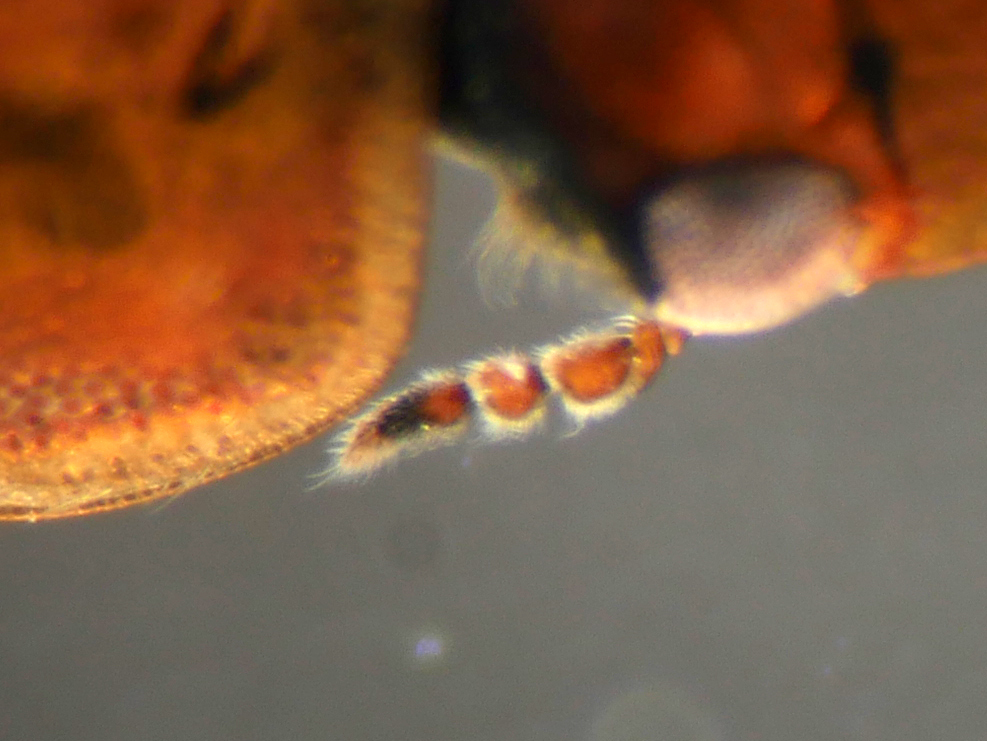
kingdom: Animalia
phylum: Arthropoda
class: Insecta
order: Coleoptera
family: Hydrophilidae
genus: Helochares
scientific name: Helochares punctatus
